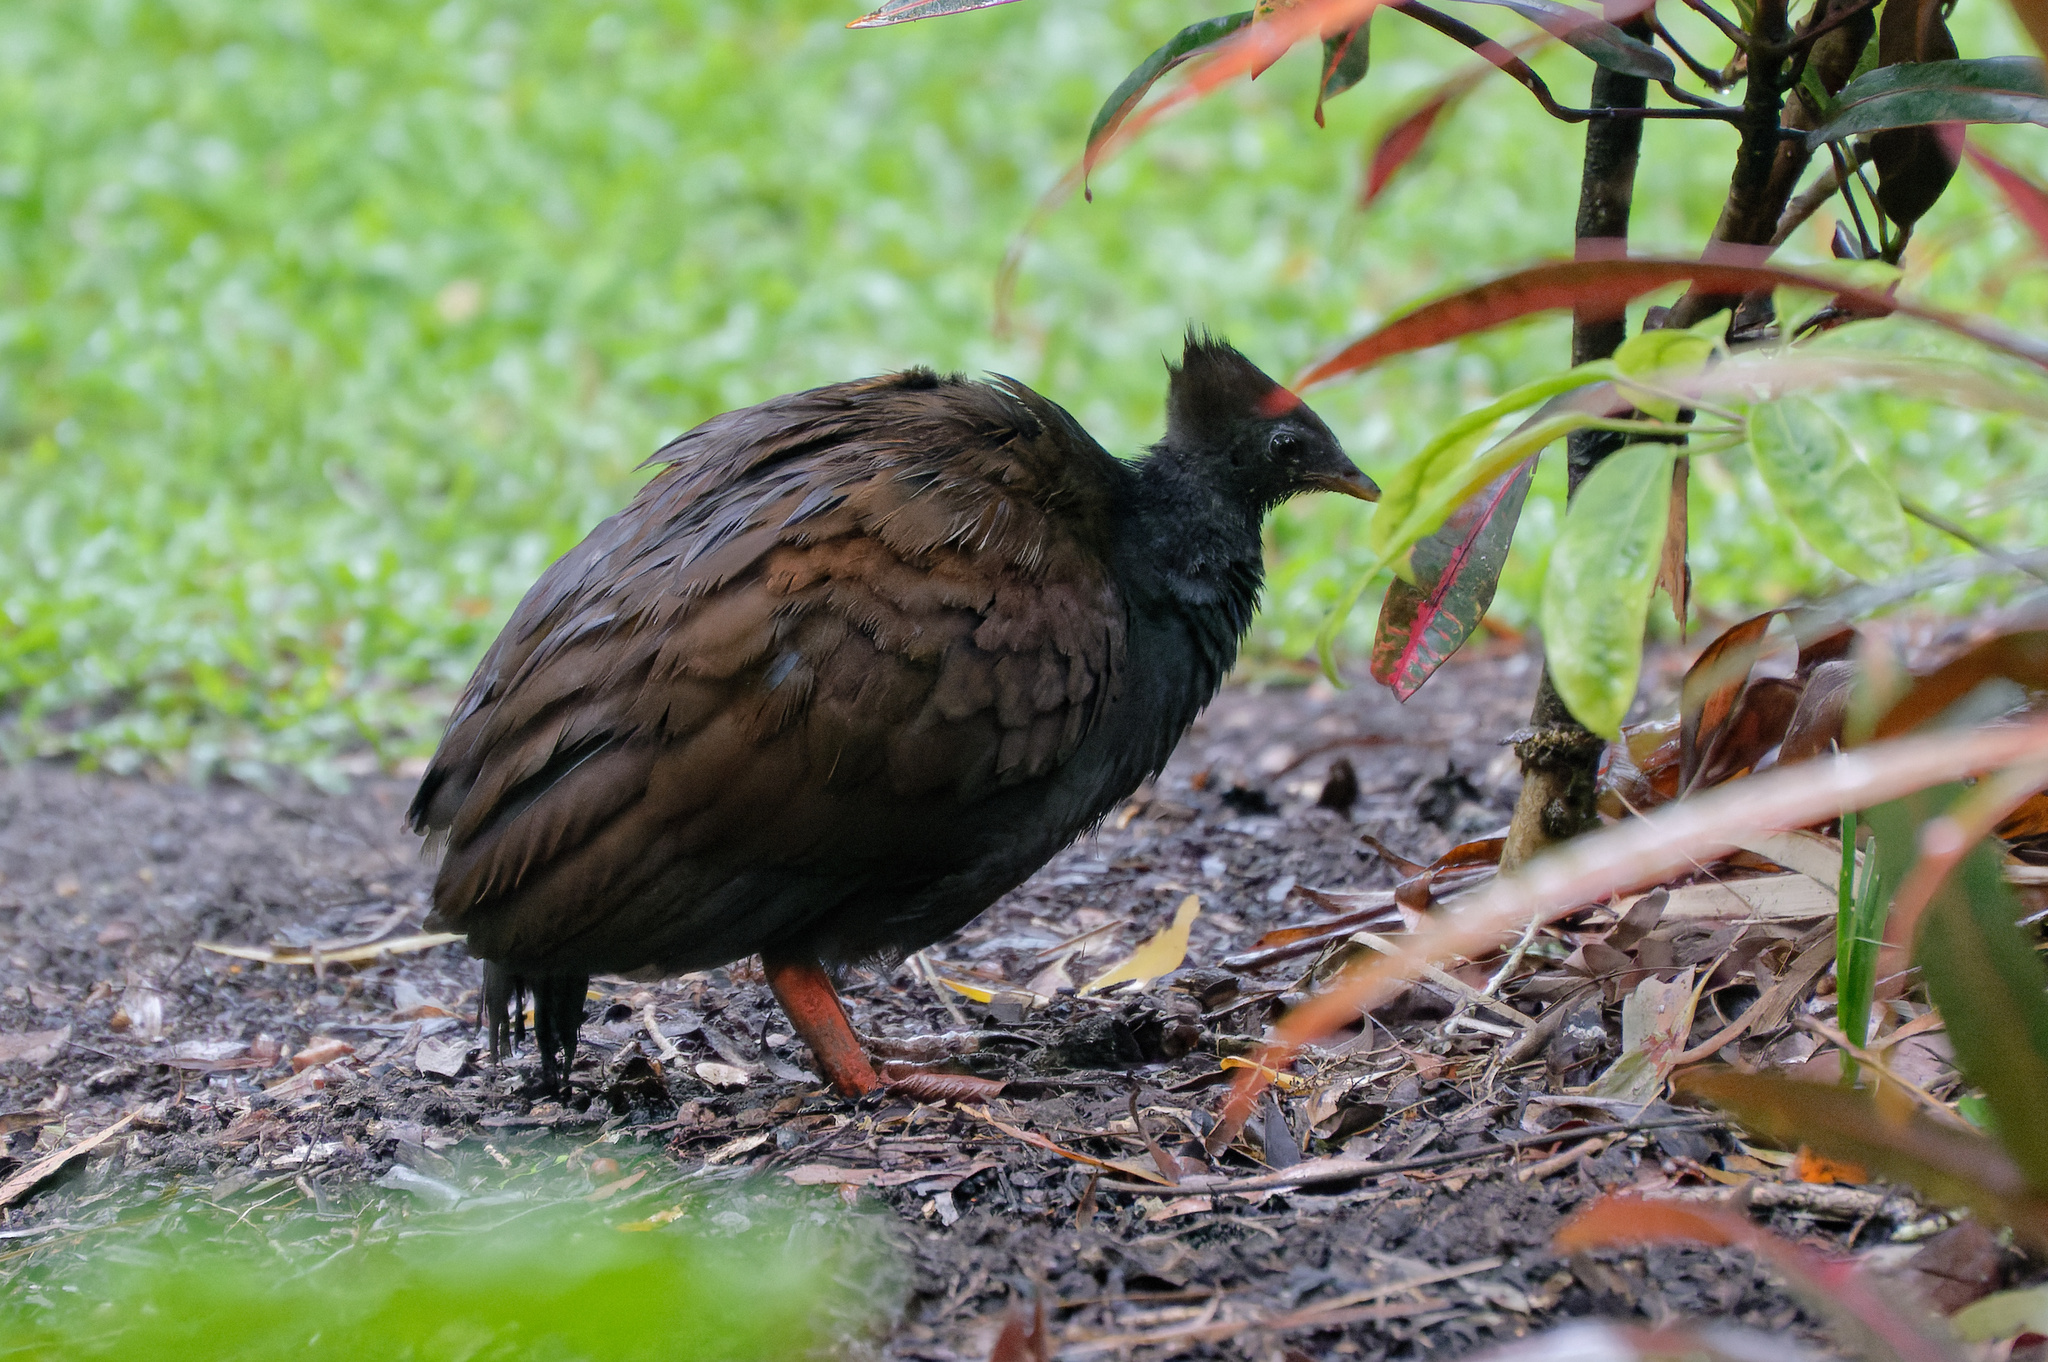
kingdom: Animalia
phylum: Chordata
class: Aves
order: Galliformes
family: Megapodiidae
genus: Megapodius
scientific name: Megapodius reinwardt
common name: Orange-footed scrubfowl
